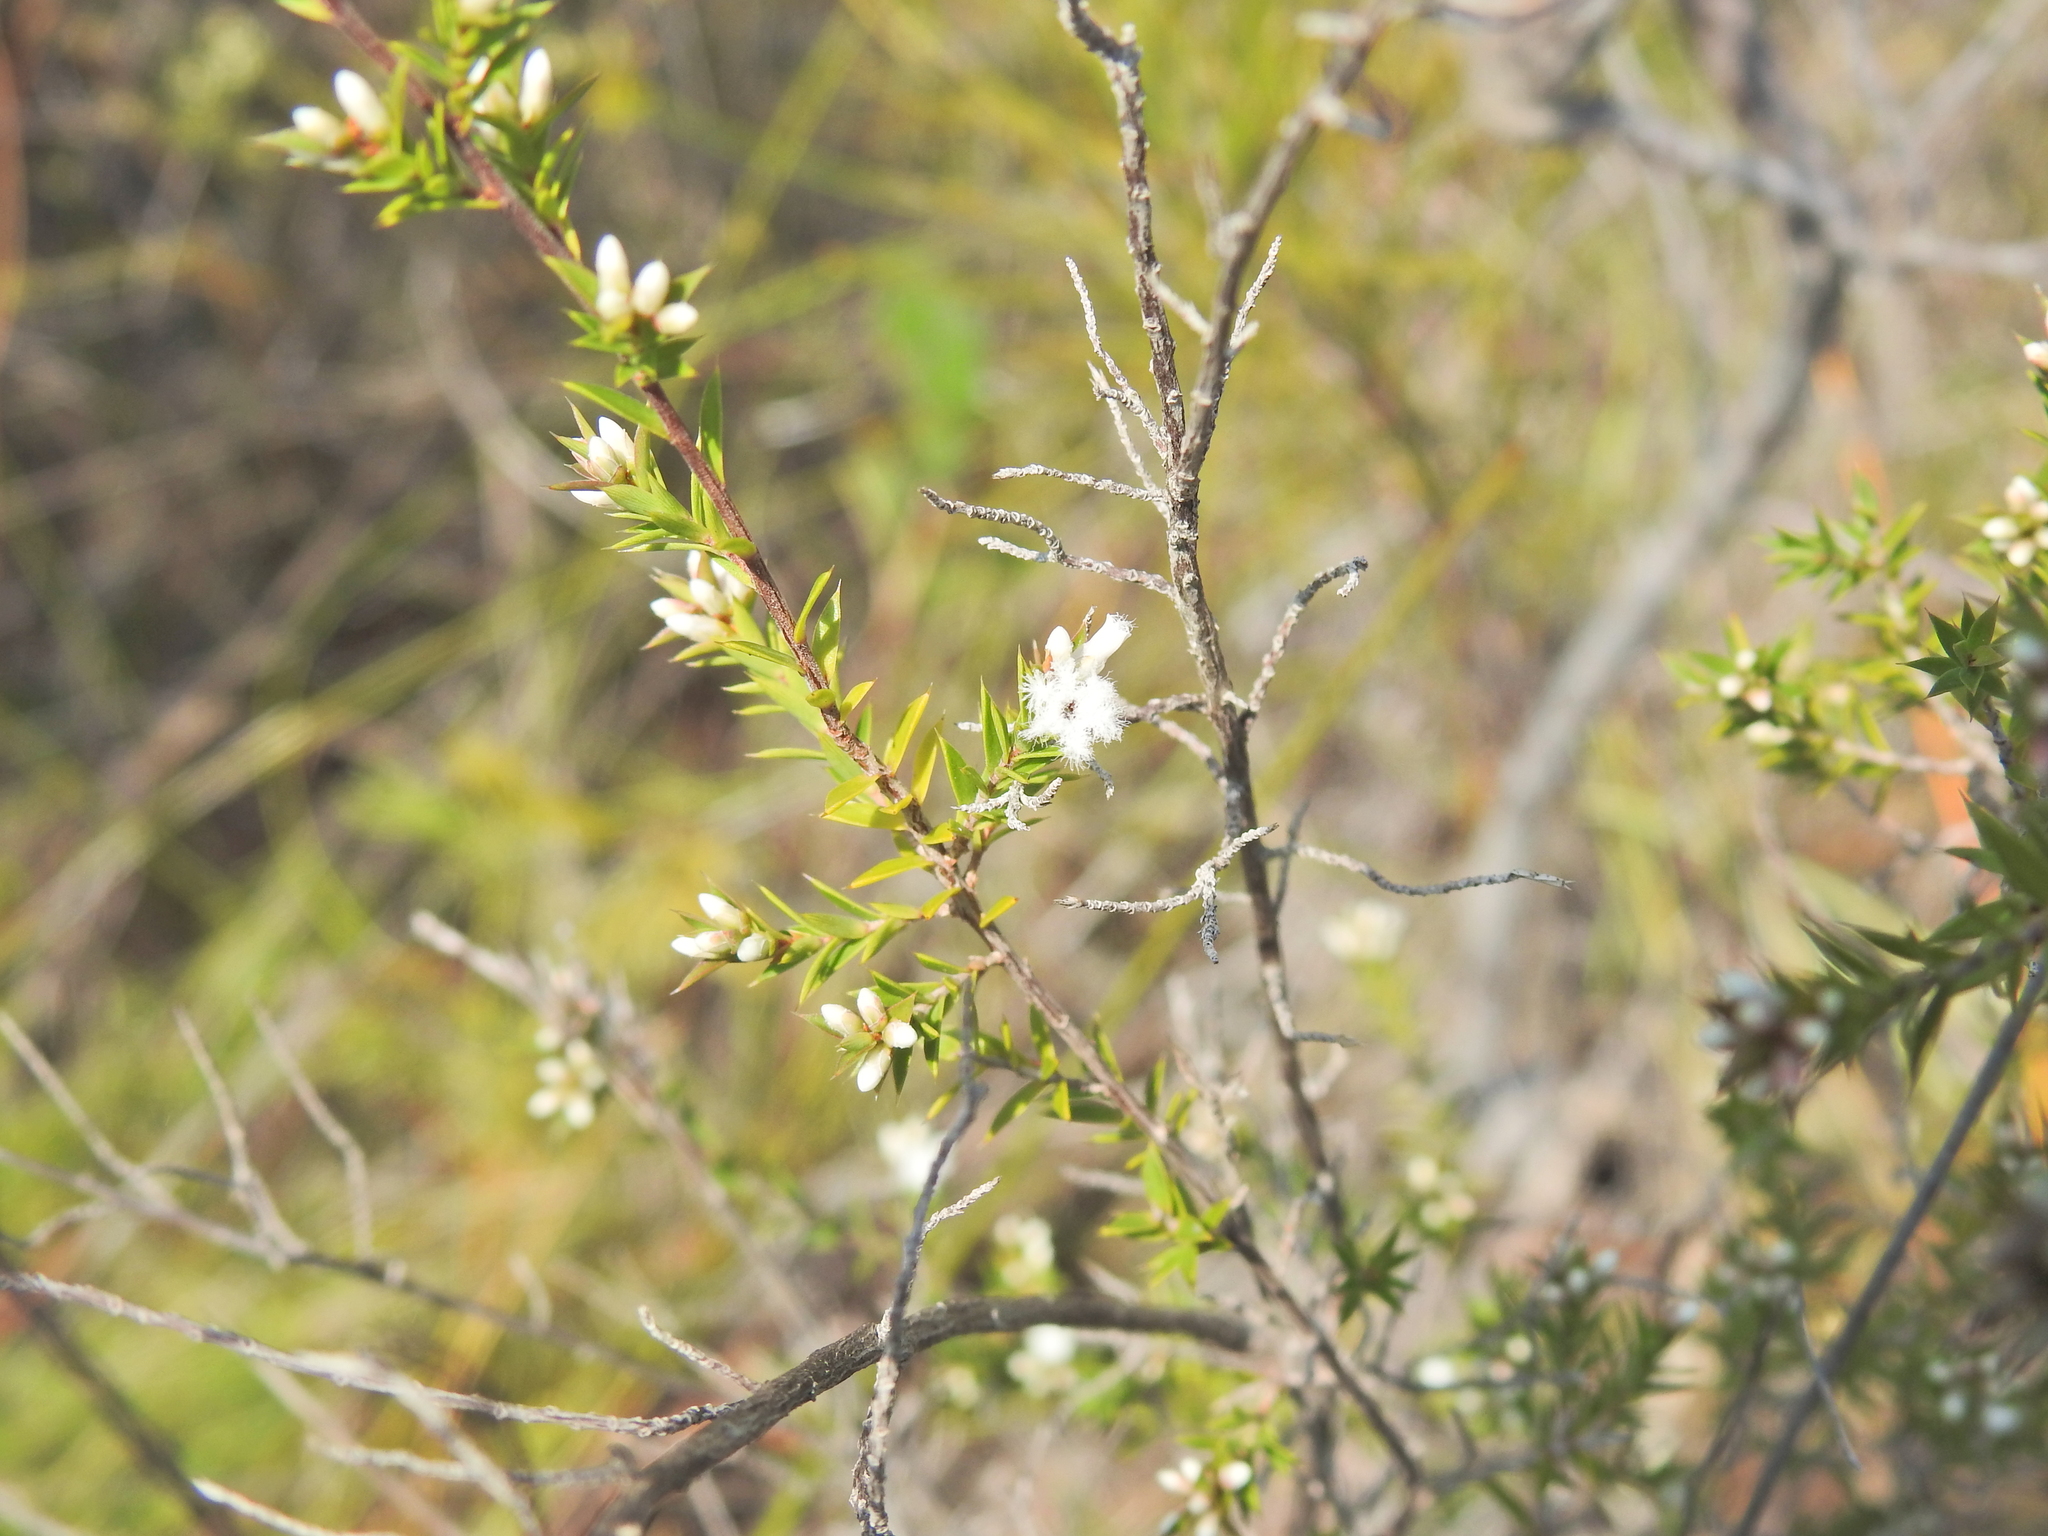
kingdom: Plantae
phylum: Tracheophyta
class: Magnoliopsida
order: Ericales
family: Ericaceae
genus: Styphelia
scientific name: Styphelia
